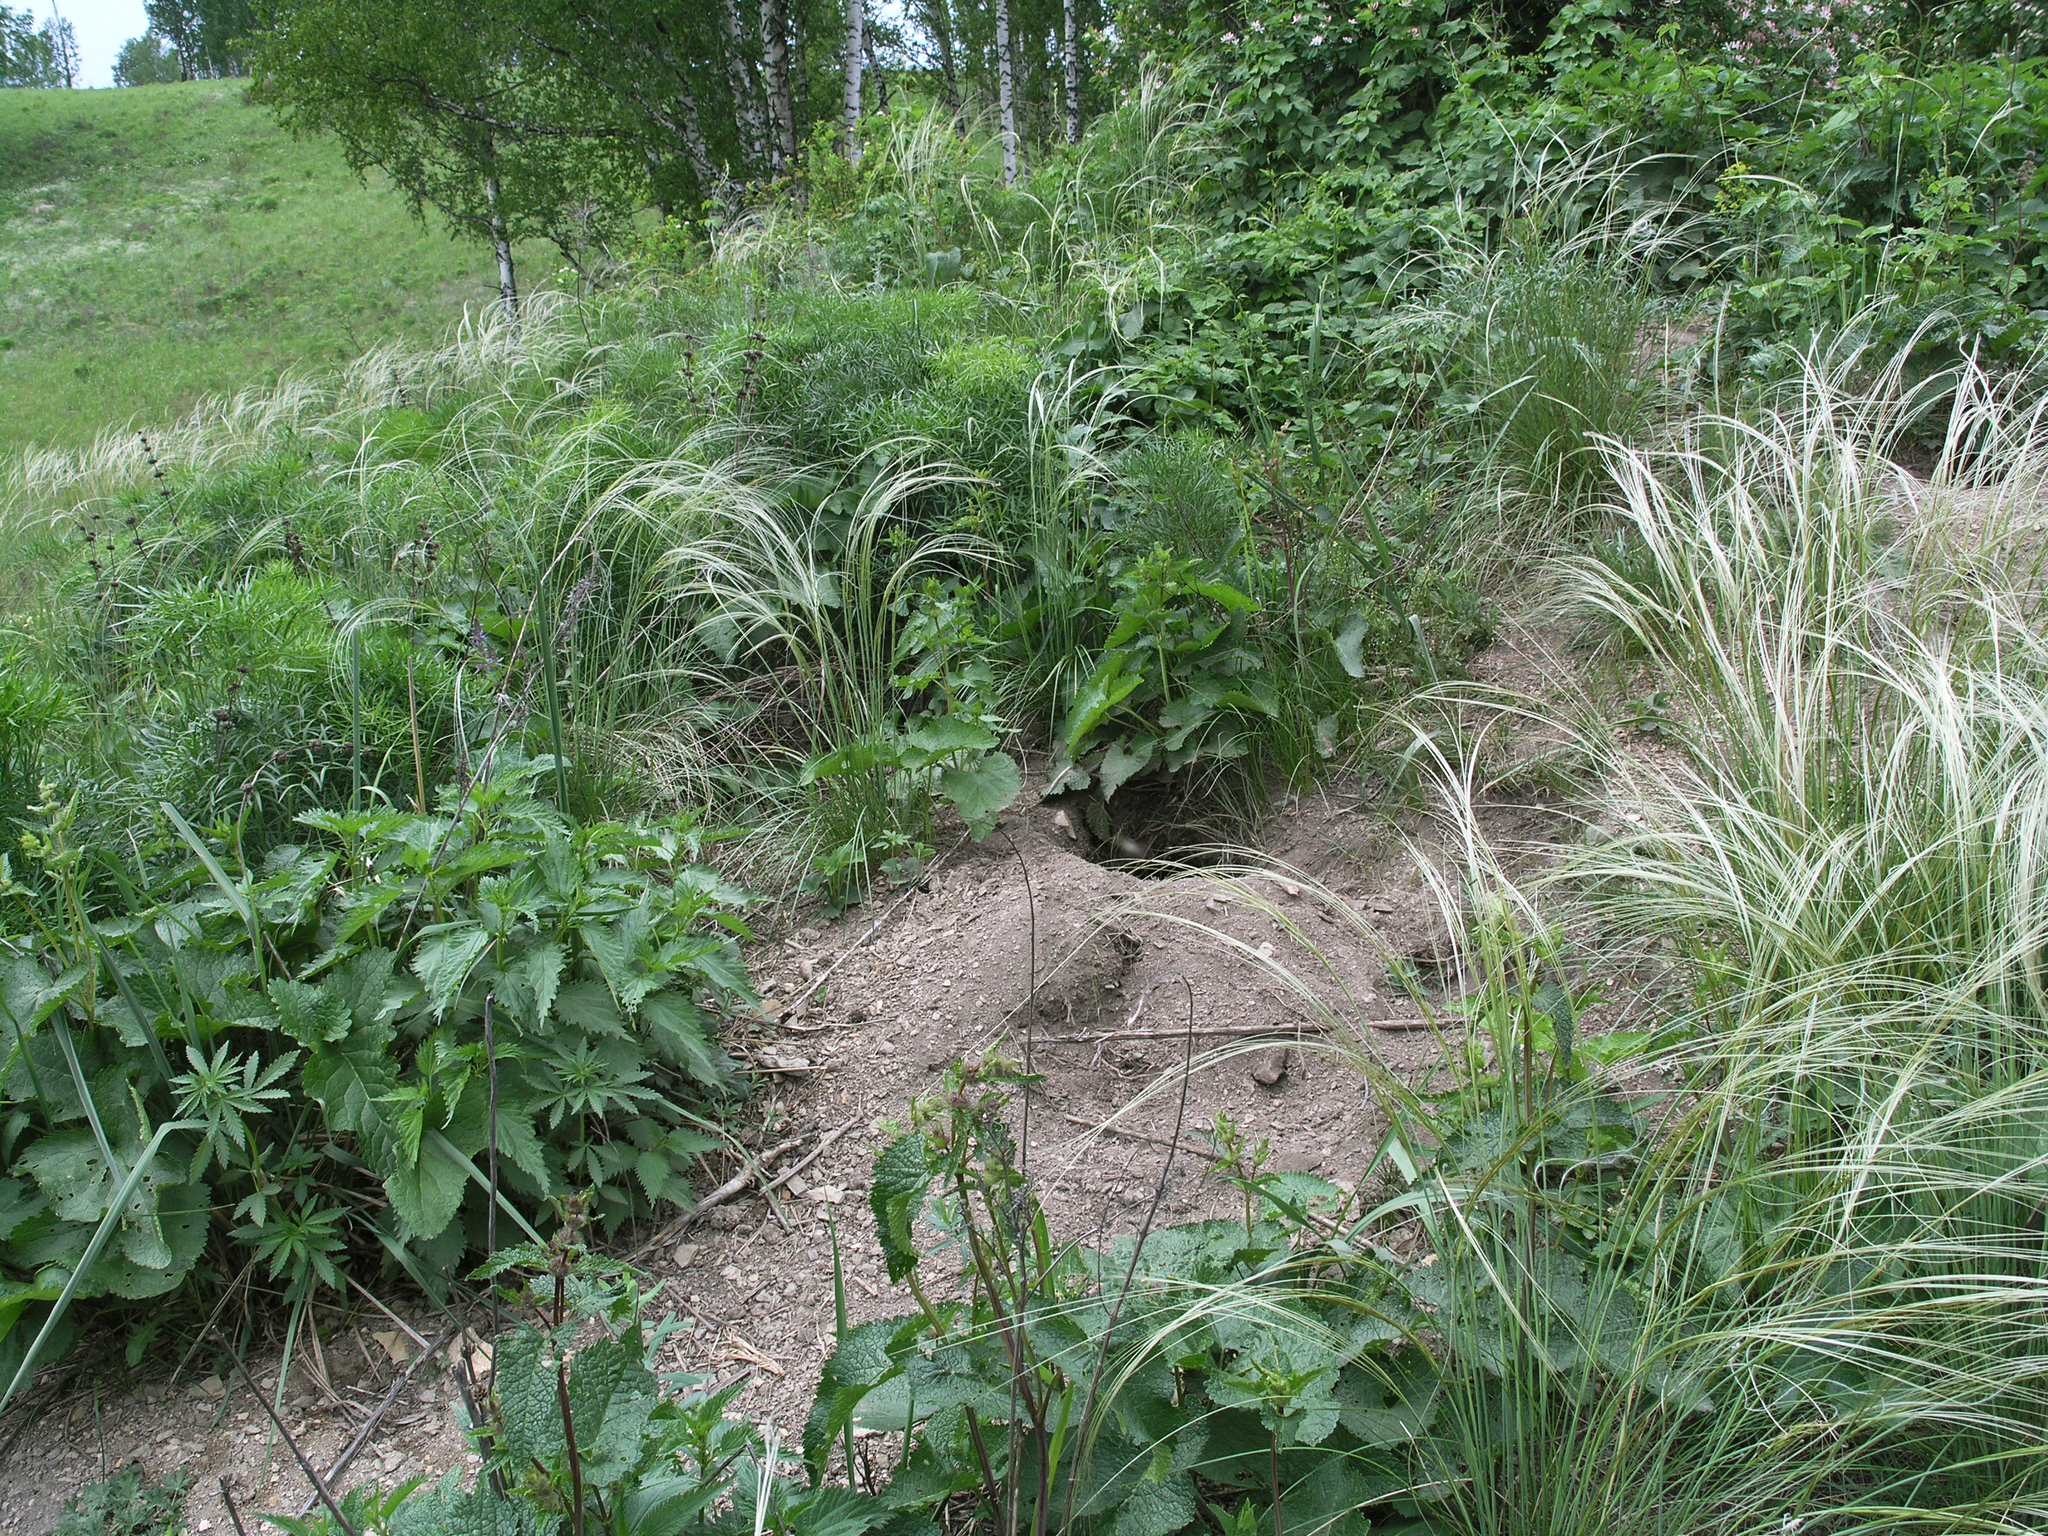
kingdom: Animalia
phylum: Chordata
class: Mammalia
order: Rodentia
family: Sciuridae
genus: Marmota
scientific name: Marmota kastschenkoi
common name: Forest steppe marmot
